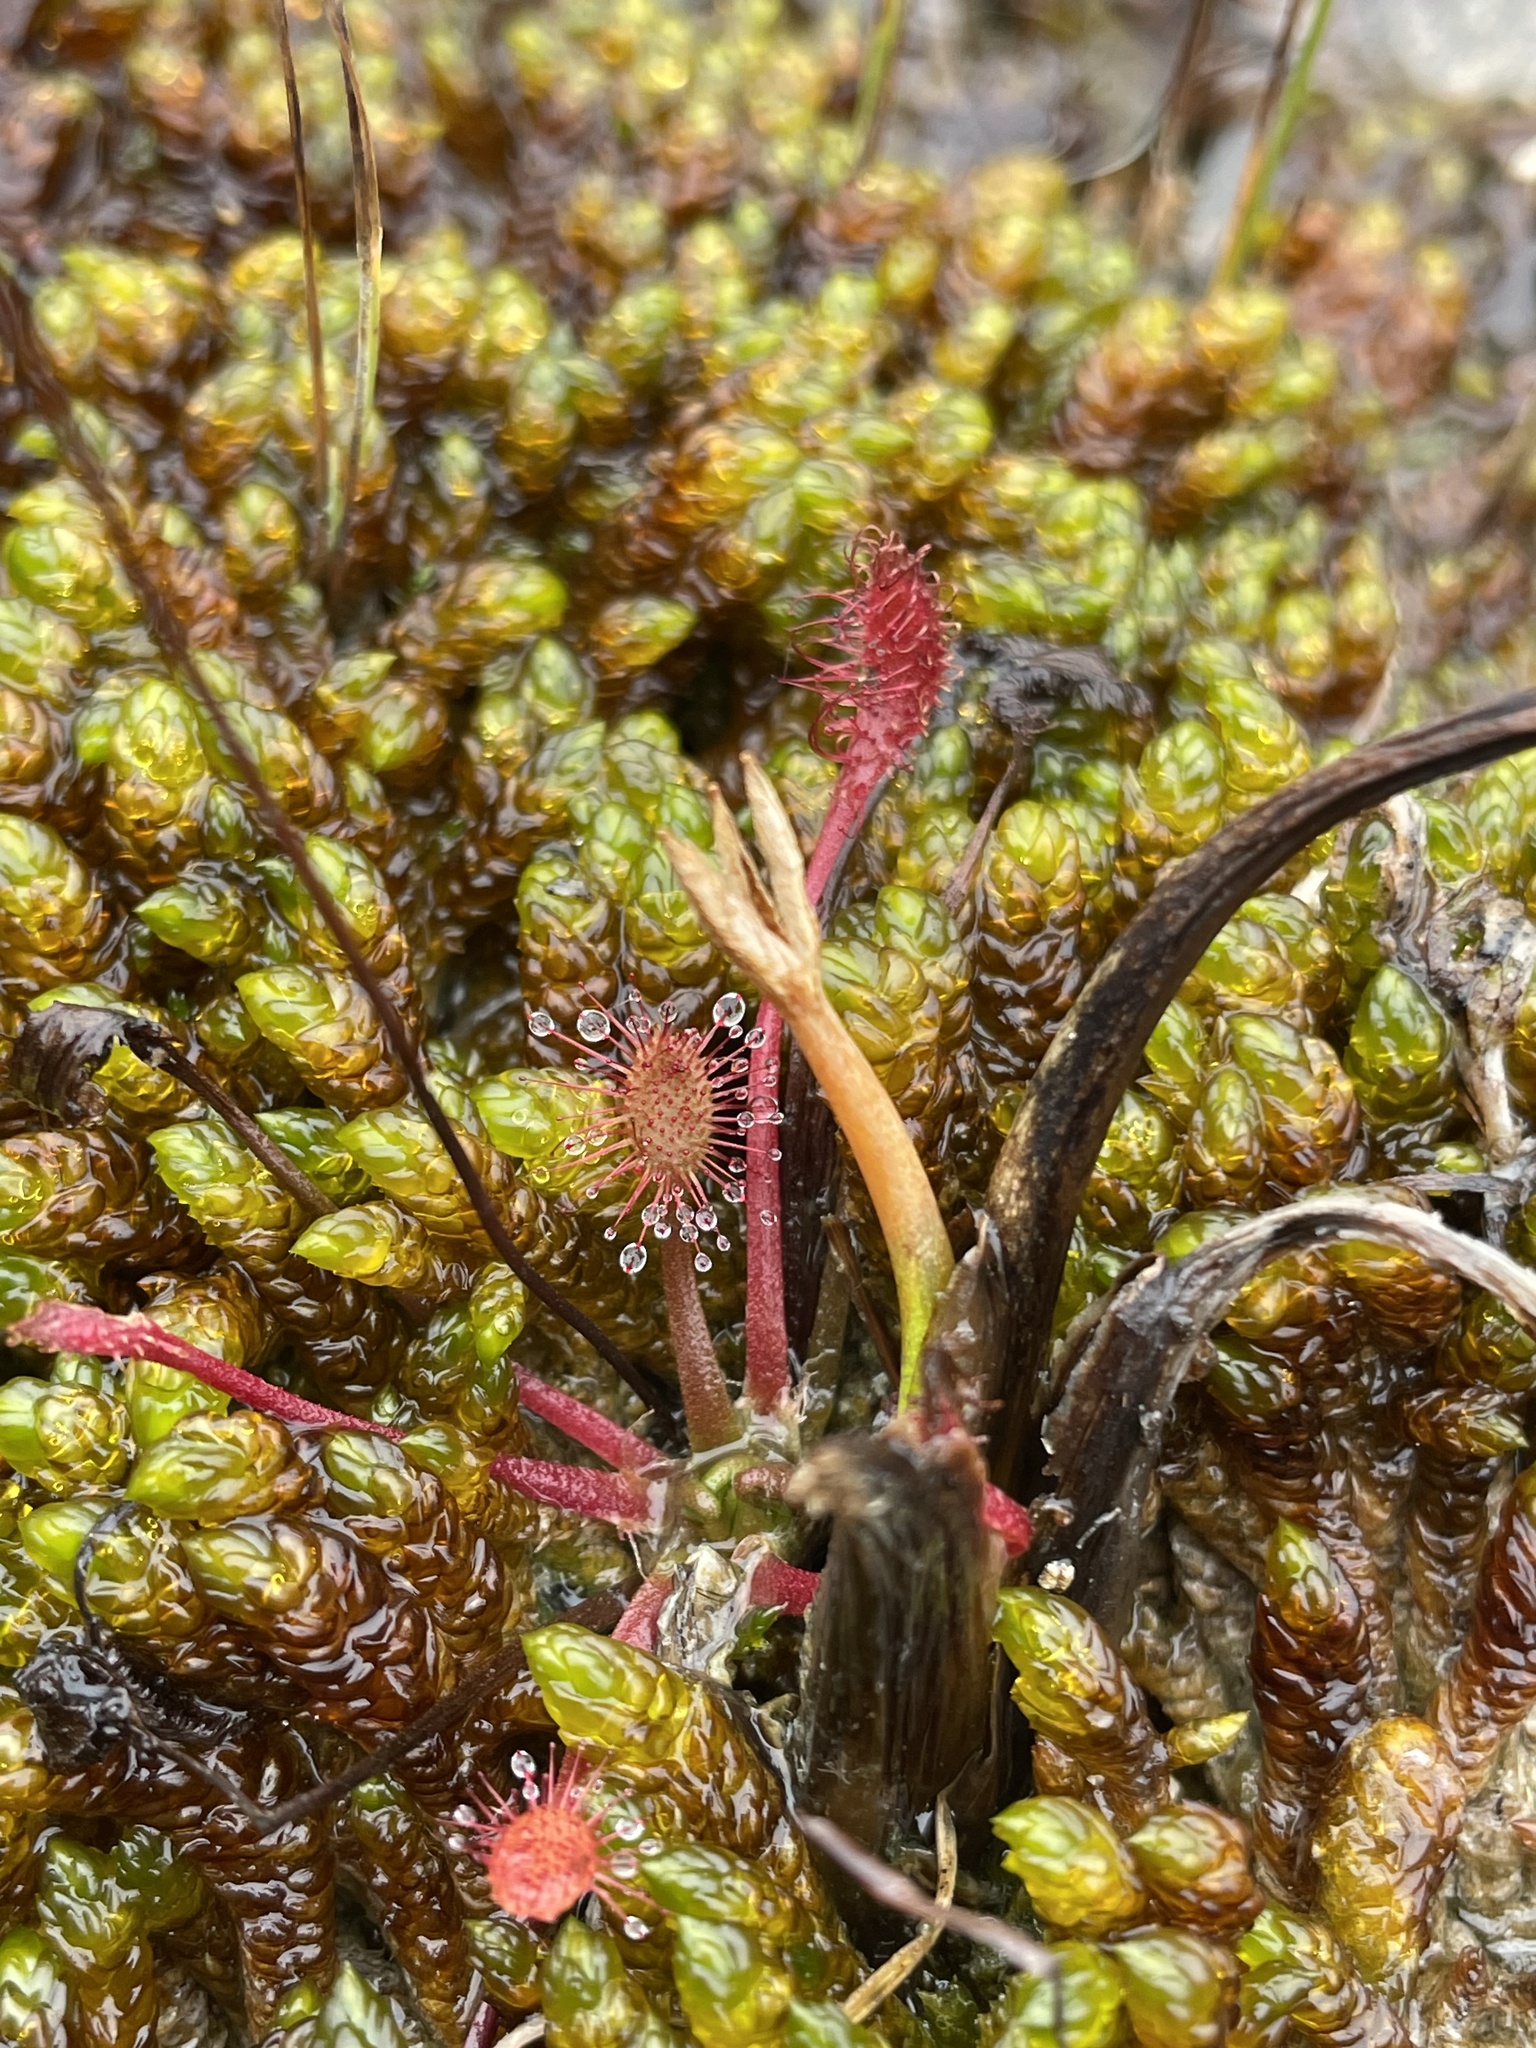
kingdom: Plantae
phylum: Tracheophyta
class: Magnoliopsida
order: Caryophyllales
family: Droseraceae
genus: Drosera
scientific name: Drosera anglica
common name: Great sundew
